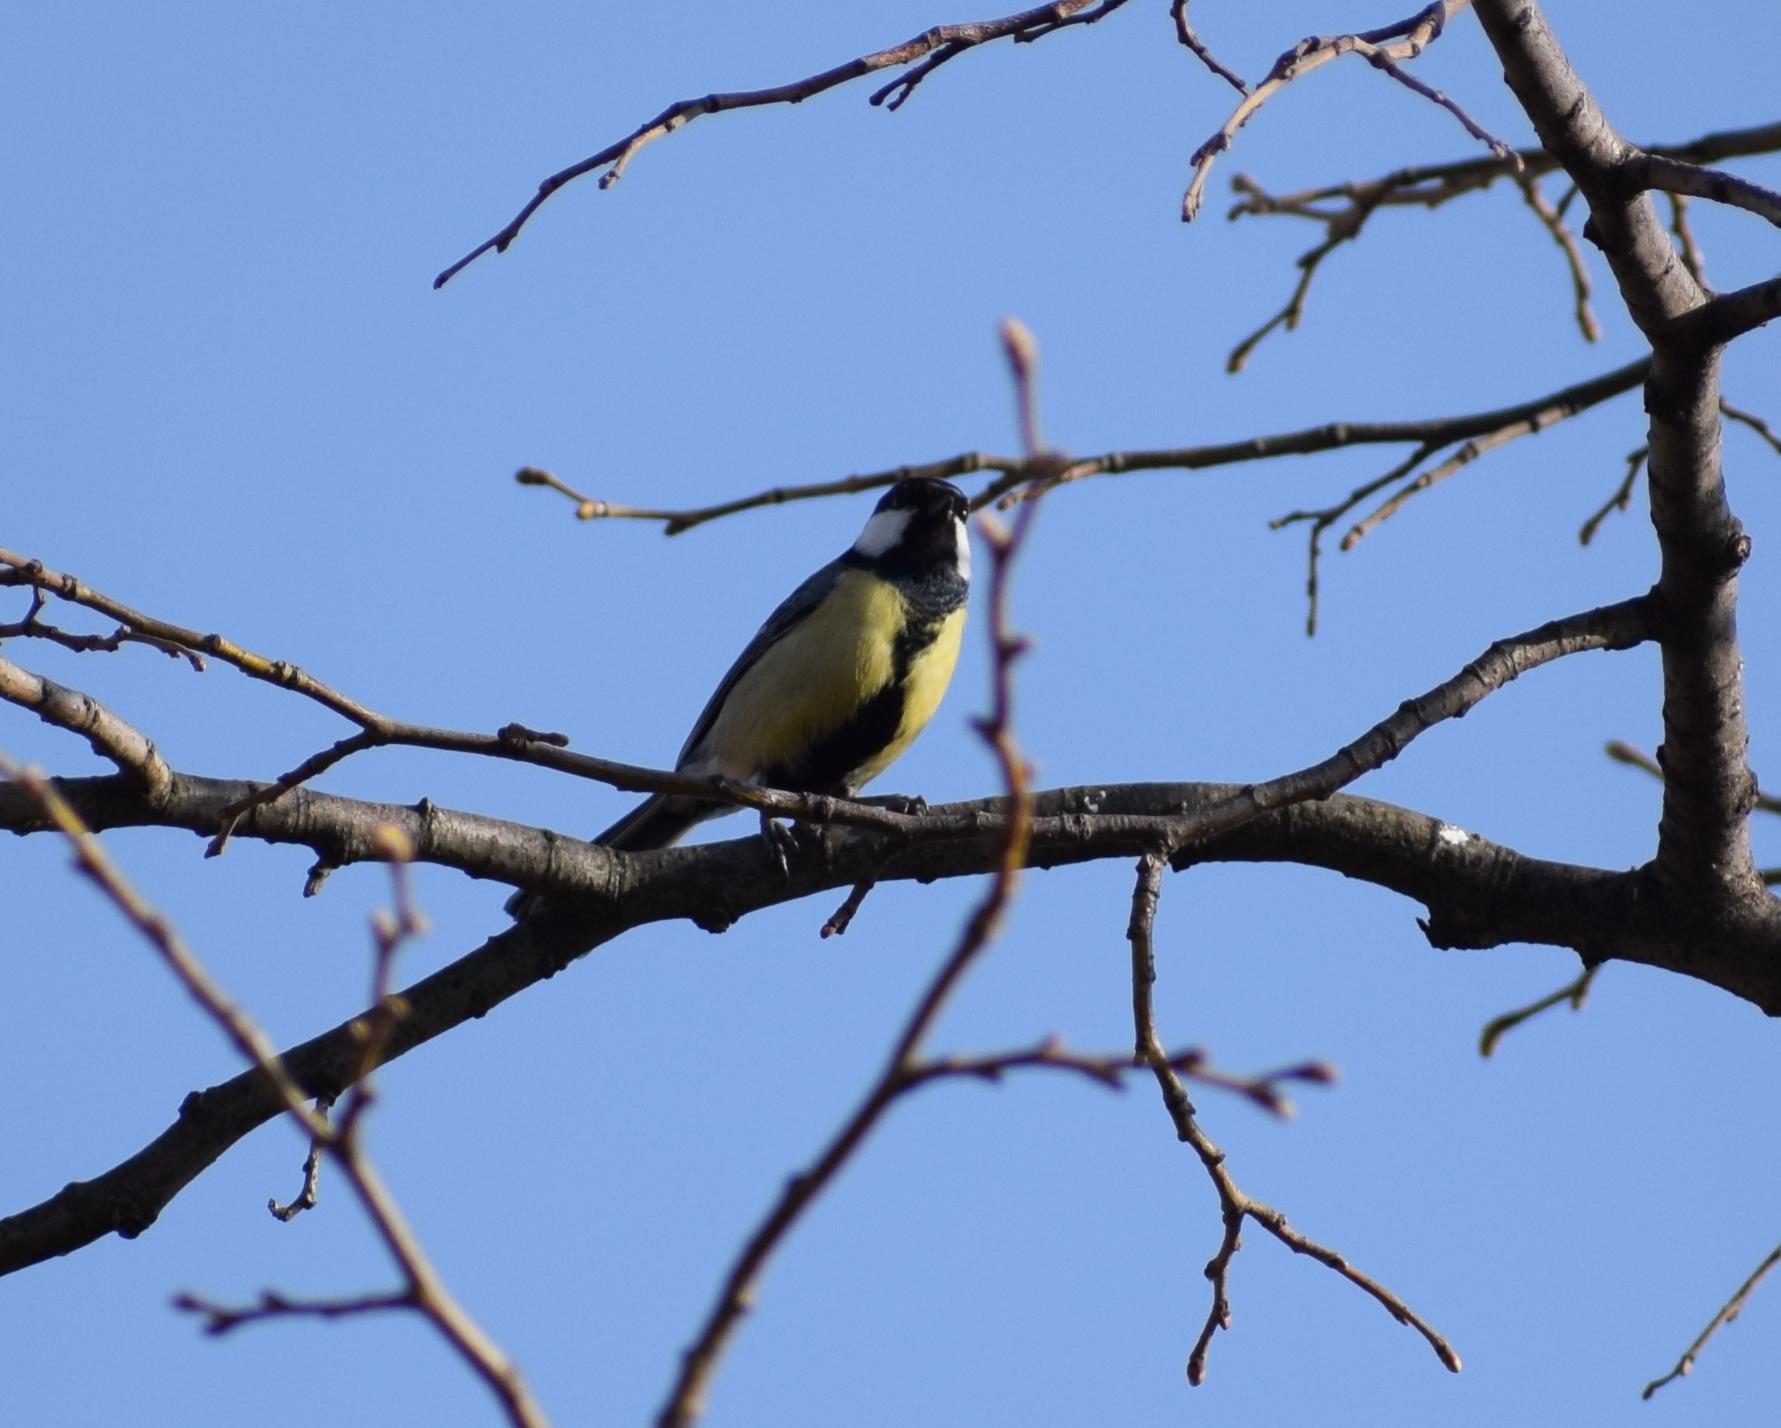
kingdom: Animalia
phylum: Chordata
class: Aves
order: Passeriformes
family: Paridae
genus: Parus
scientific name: Parus major
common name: Great tit
